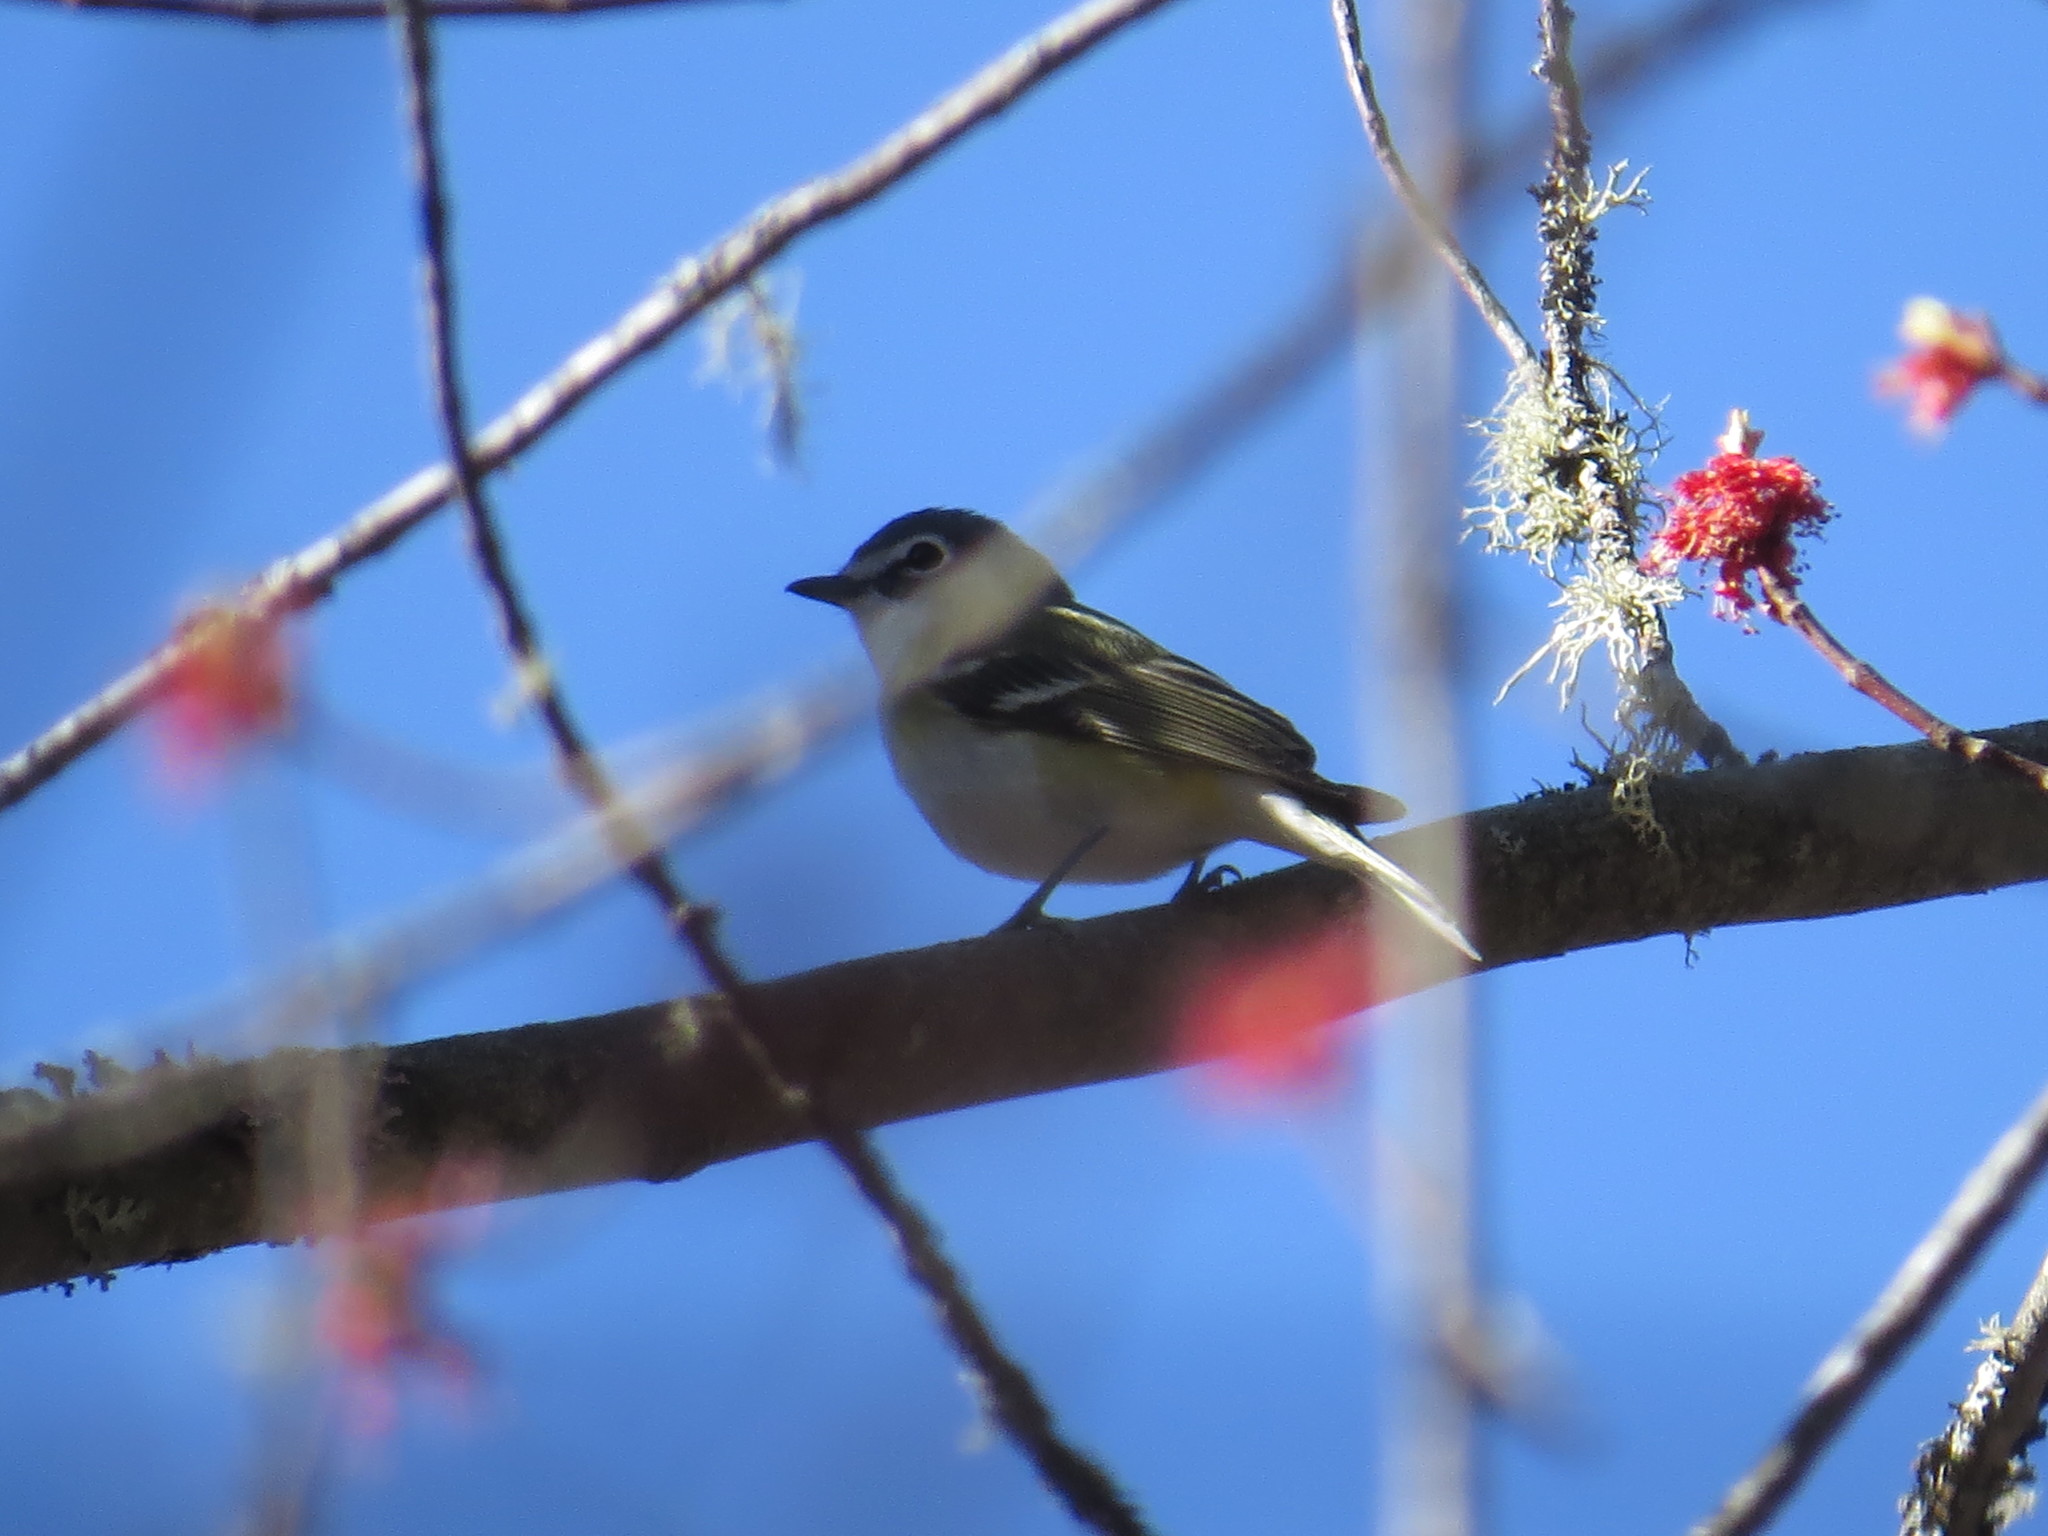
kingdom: Animalia
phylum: Chordata
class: Aves
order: Passeriformes
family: Vireonidae
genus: Vireo
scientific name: Vireo solitarius
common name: Blue-headed vireo
